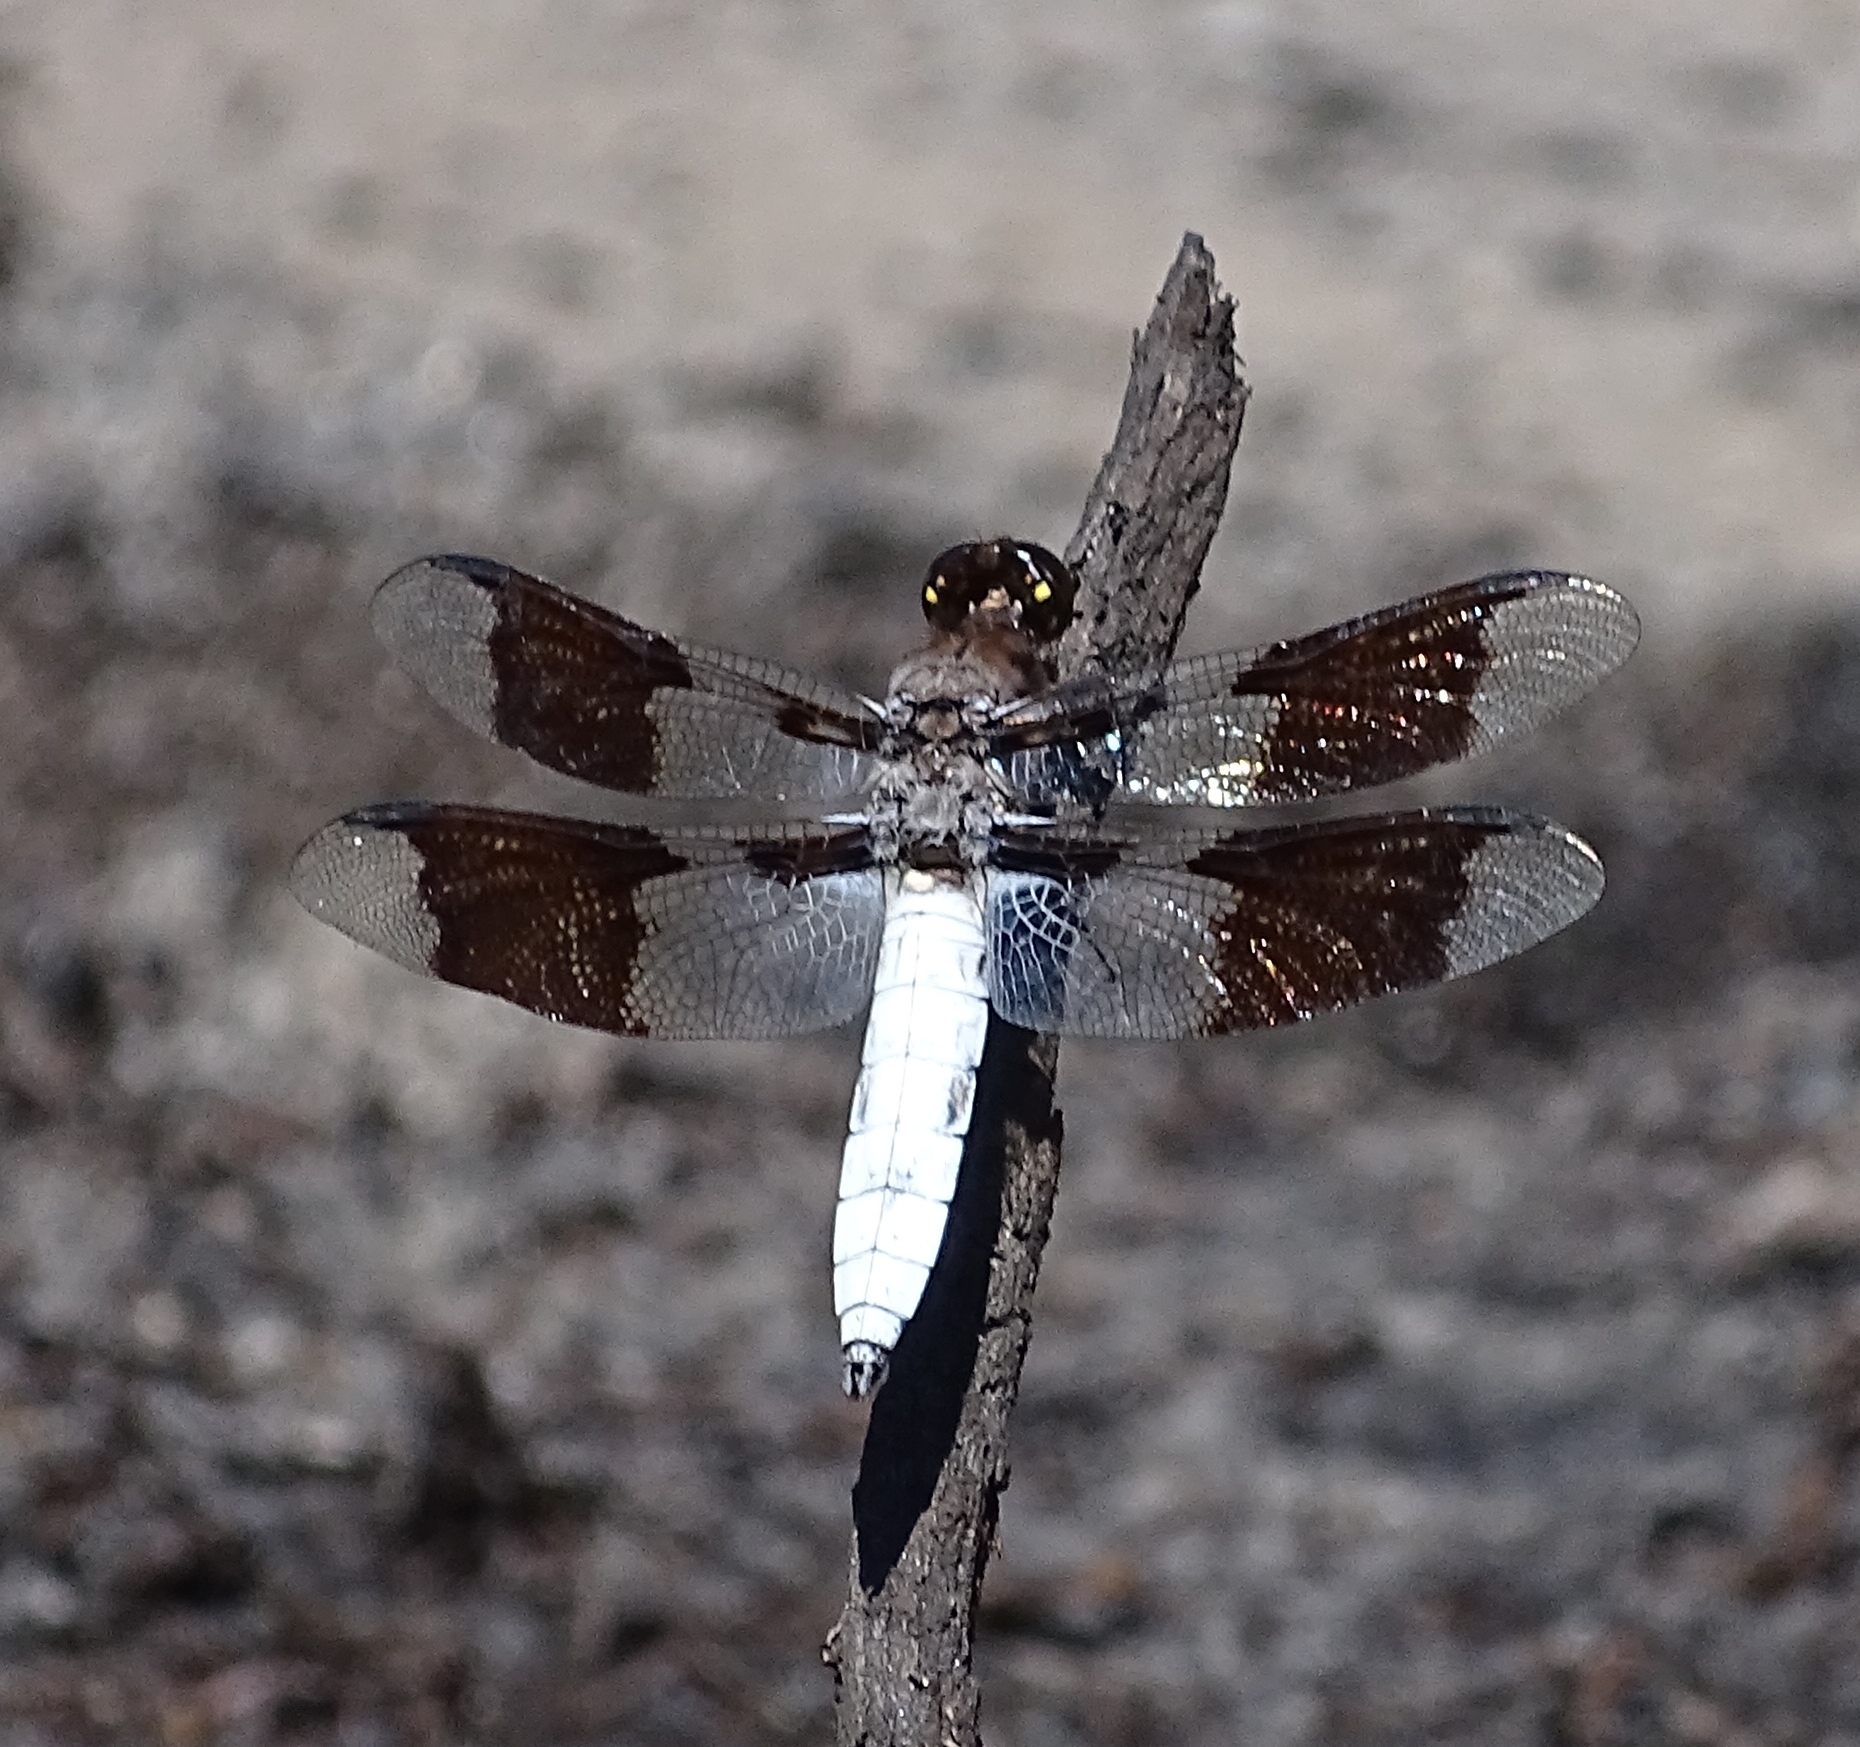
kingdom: Animalia
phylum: Arthropoda
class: Insecta
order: Odonata
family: Libellulidae
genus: Plathemis
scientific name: Plathemis lydia
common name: Common whitetail
